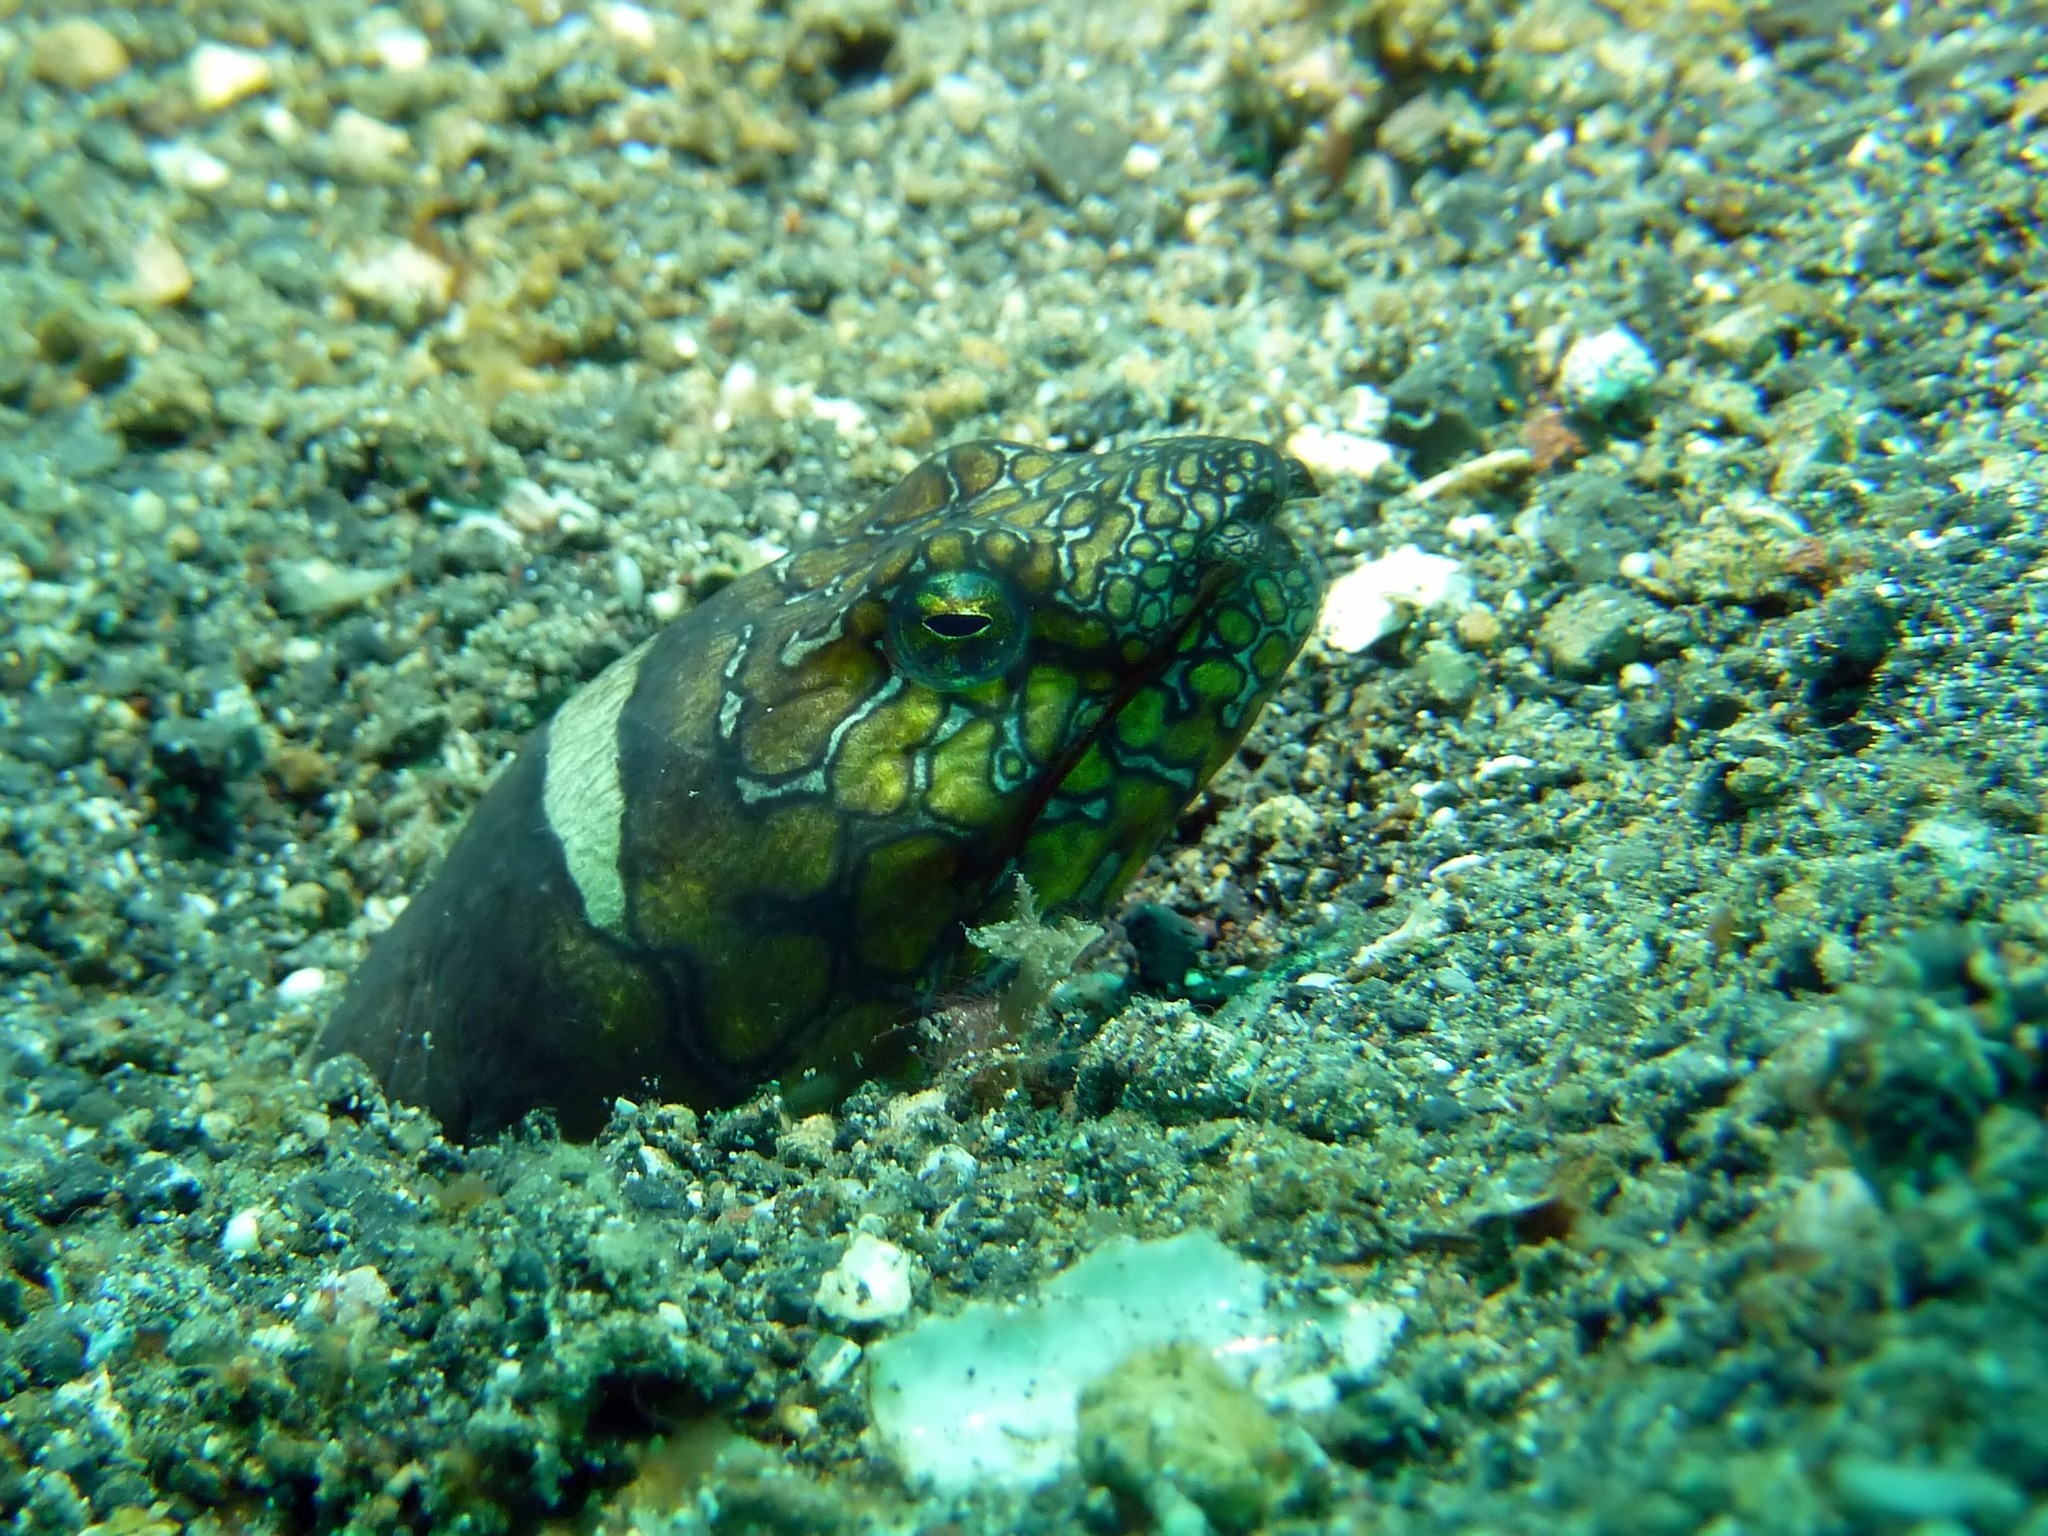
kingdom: Animalia
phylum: Chordata
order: Anguilliformes
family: Ophichthidae
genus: Ophichthus
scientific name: Ophichthus bonaparti
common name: Napoleon snake eel
